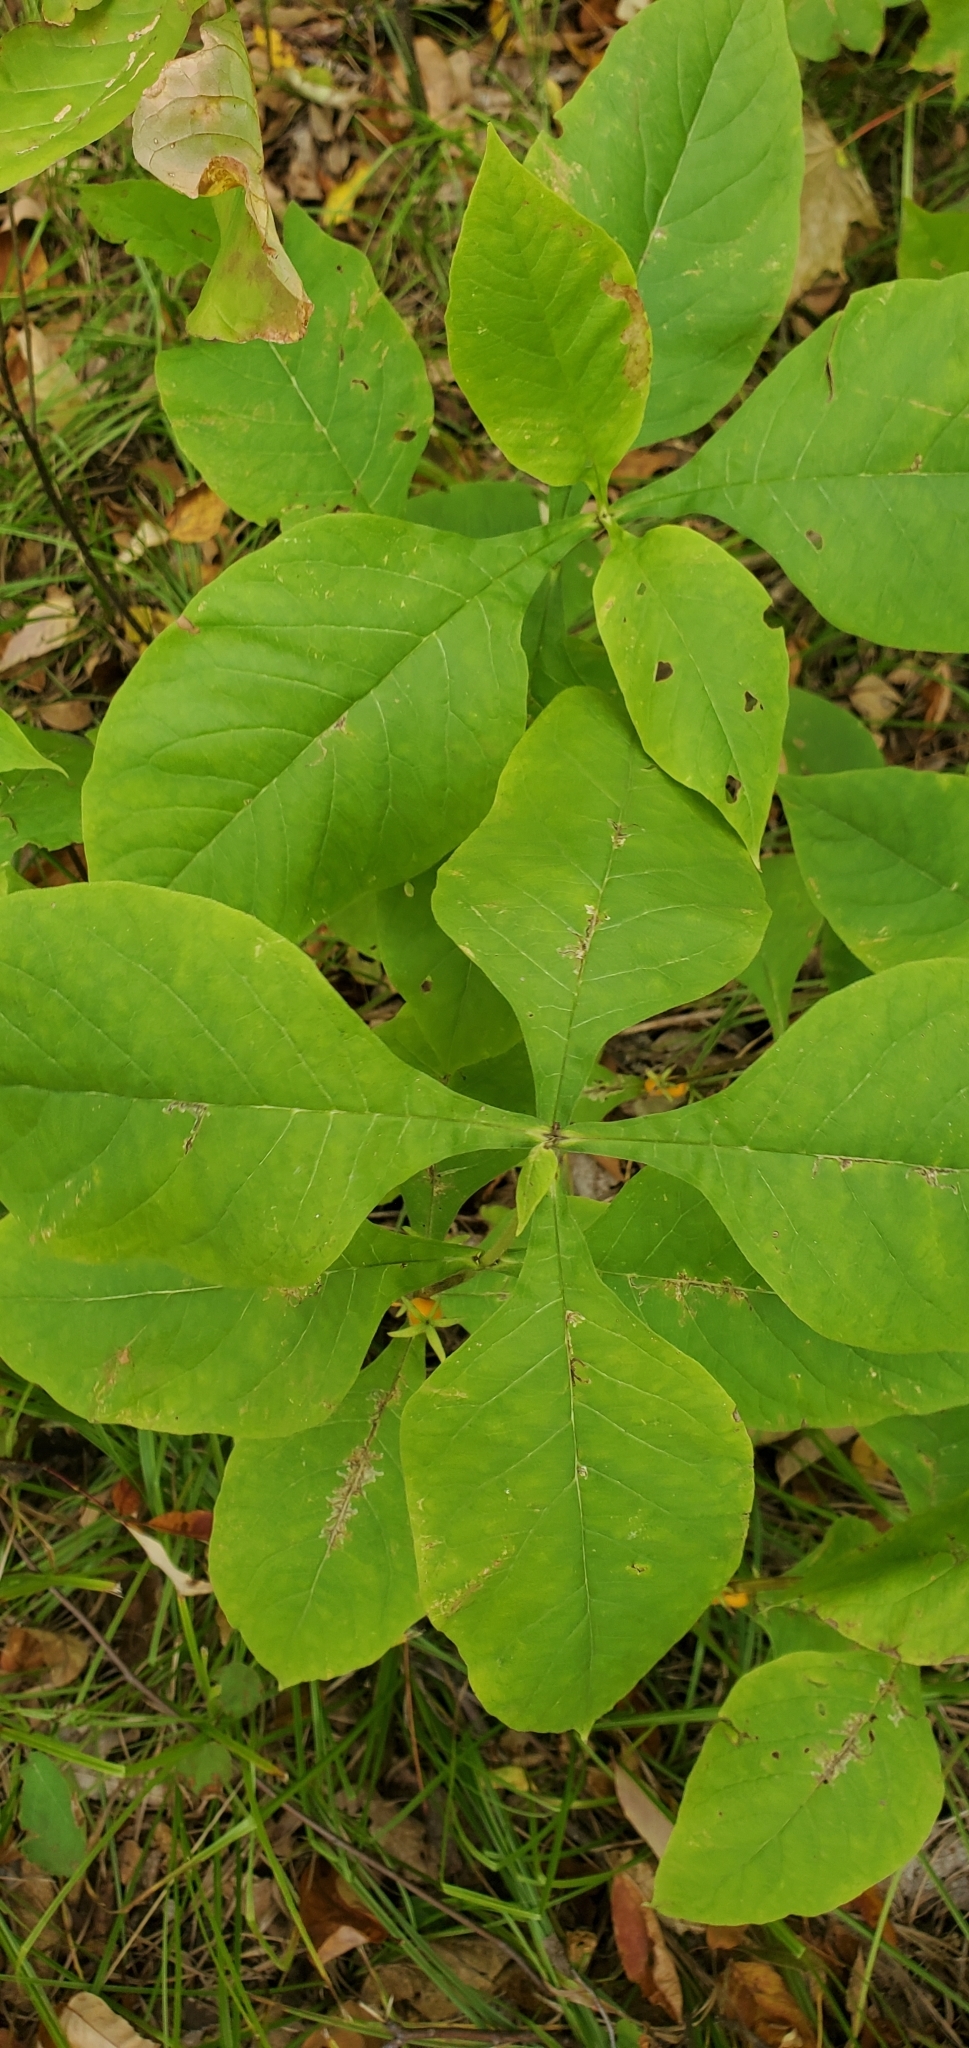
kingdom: Plantae
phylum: Tracheophyta
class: Magnoliopsida
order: Dipsacales
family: Caprifoliaceae
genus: Triosteum
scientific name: Triosteum aurantiacum
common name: Coffee tinker's-weed
